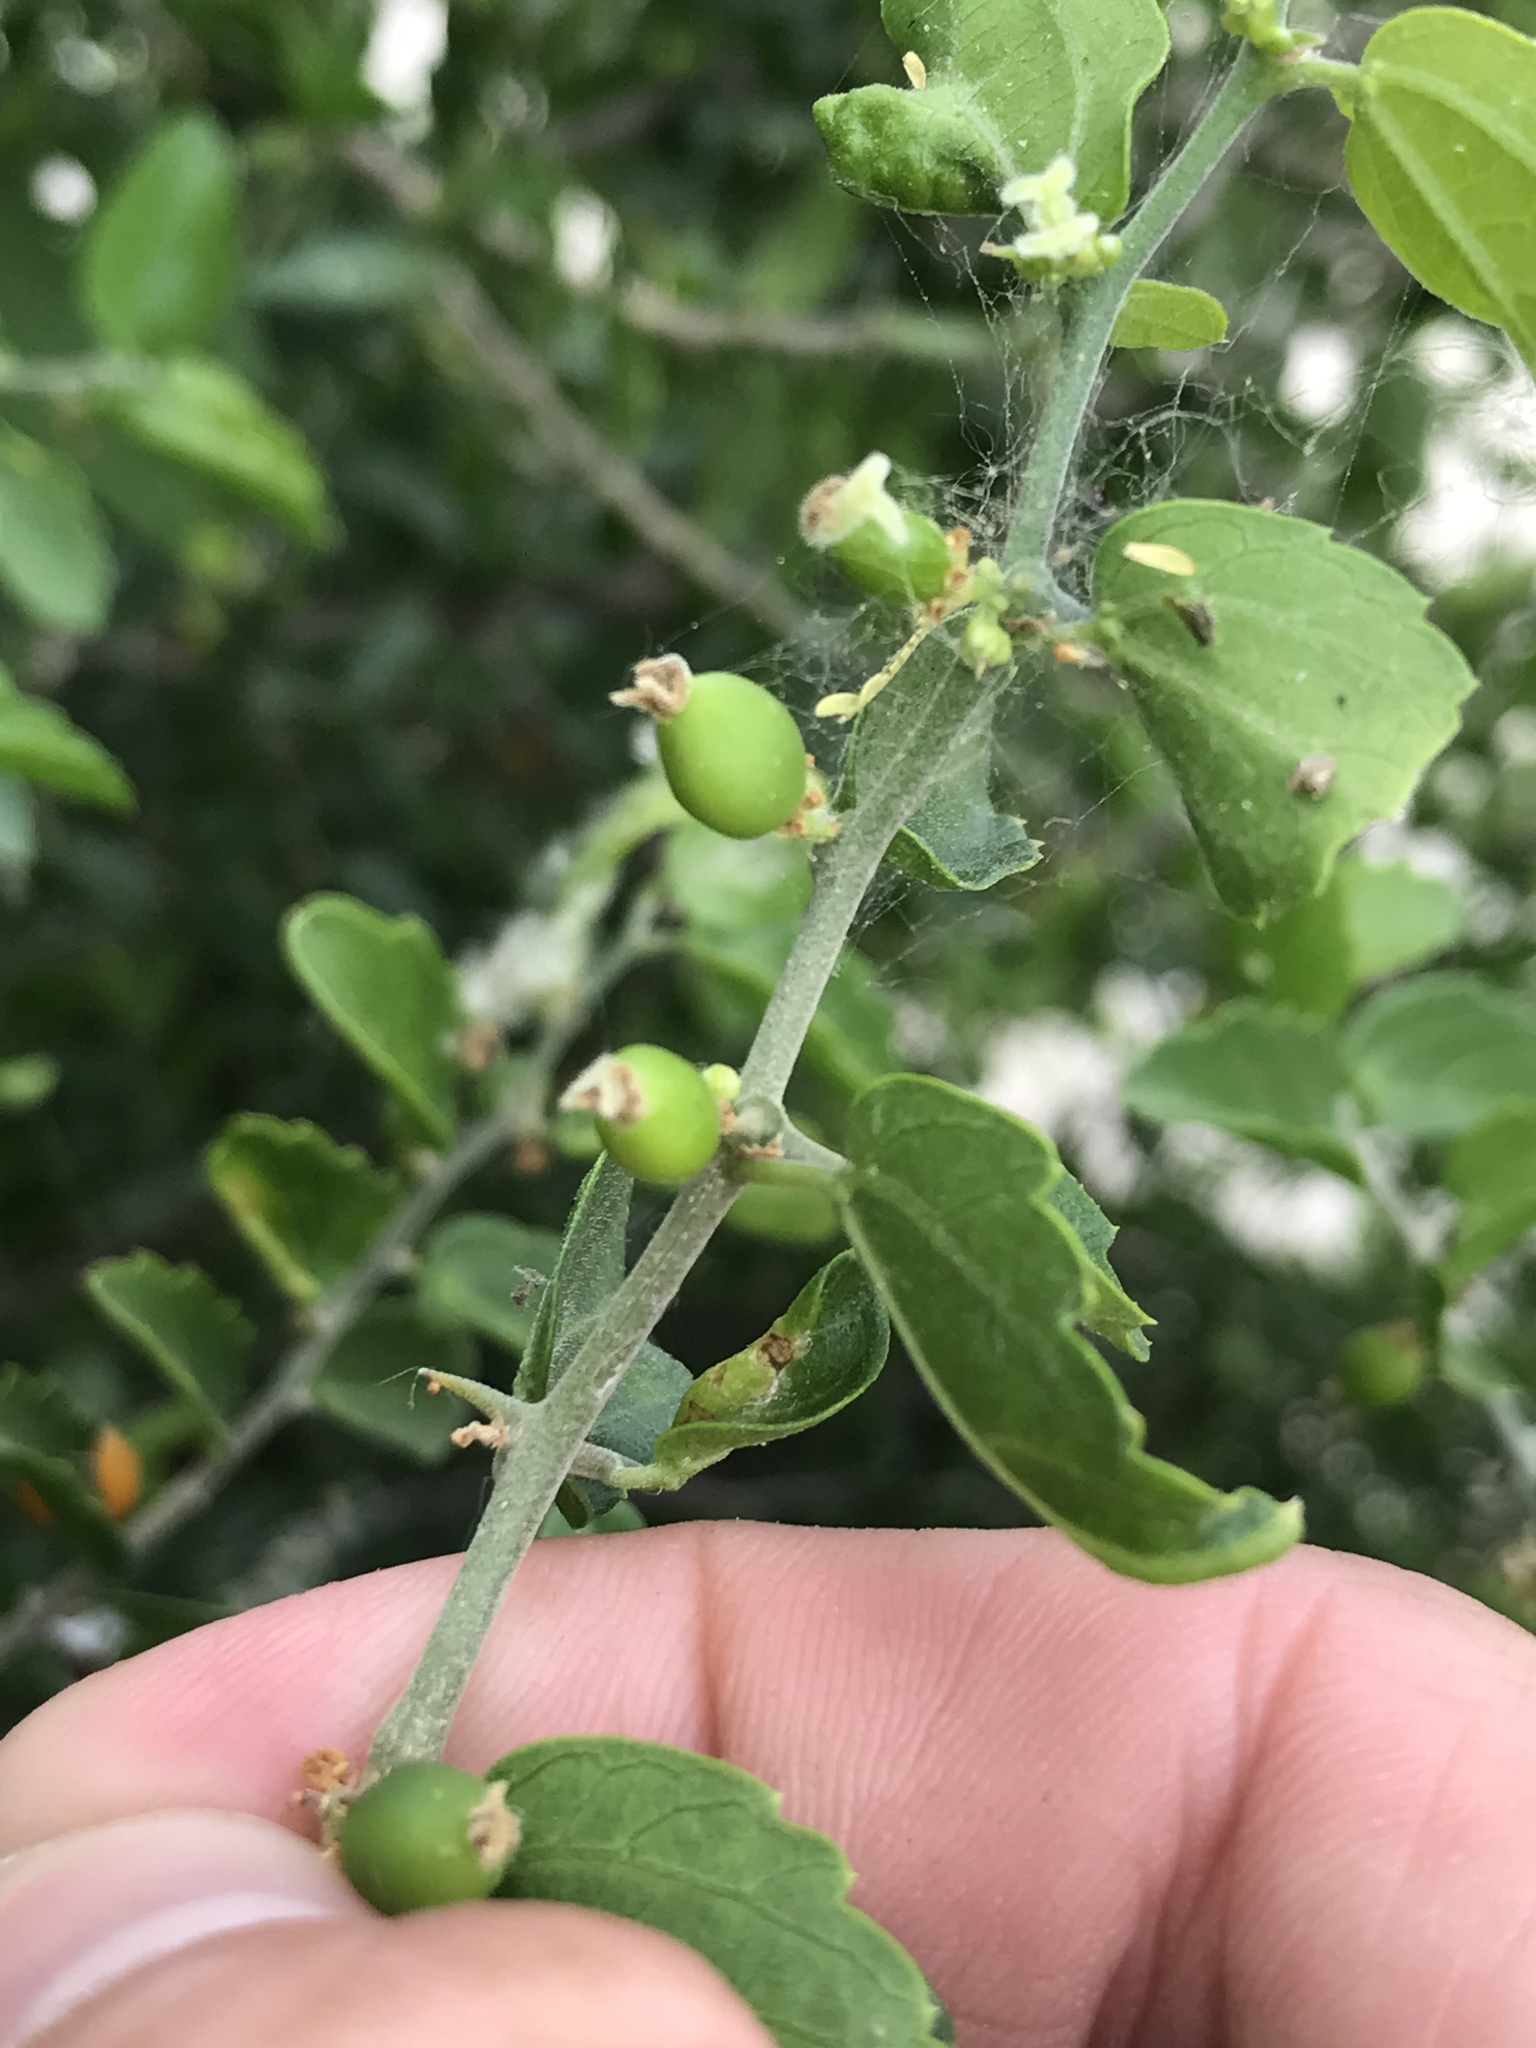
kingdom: Plantae
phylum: Tracheophyta
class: Magnoliopsida
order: Rosales
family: Cannabaceae
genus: Celtis
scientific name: Celtis pallida
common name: Desert hackberry
